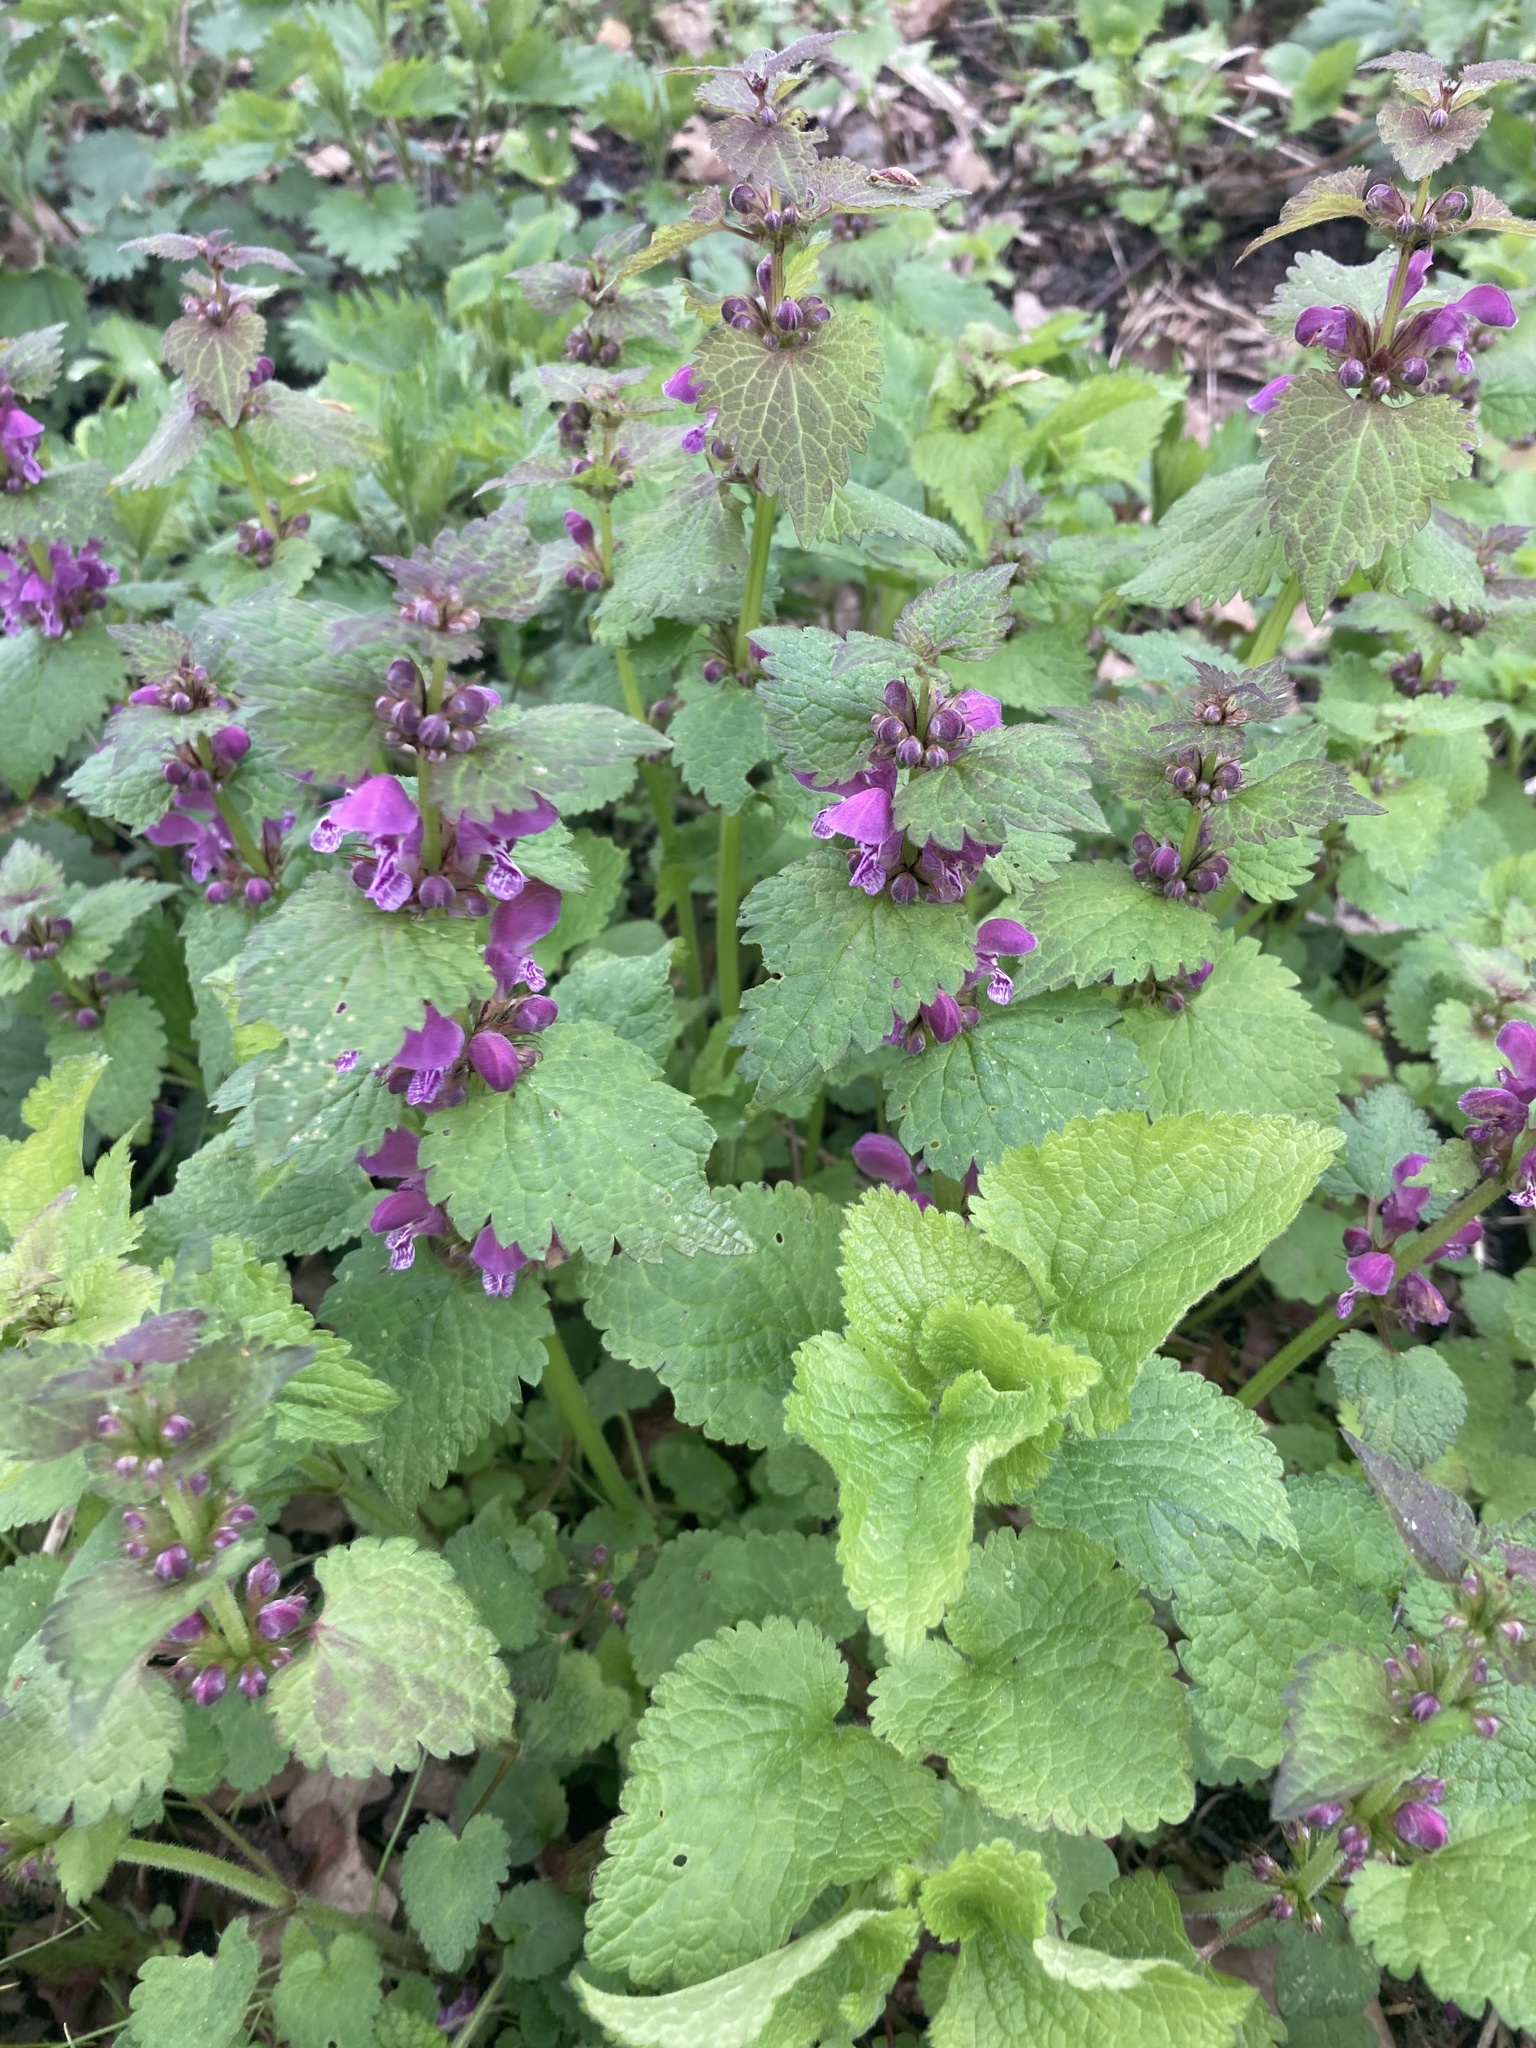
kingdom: Plantae
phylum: Tracheophyta
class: Magnoliopsida
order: Lamiales
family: Lamiaceae
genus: Lamium
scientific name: Lamium maculatum
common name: Spotted dead-nettle
